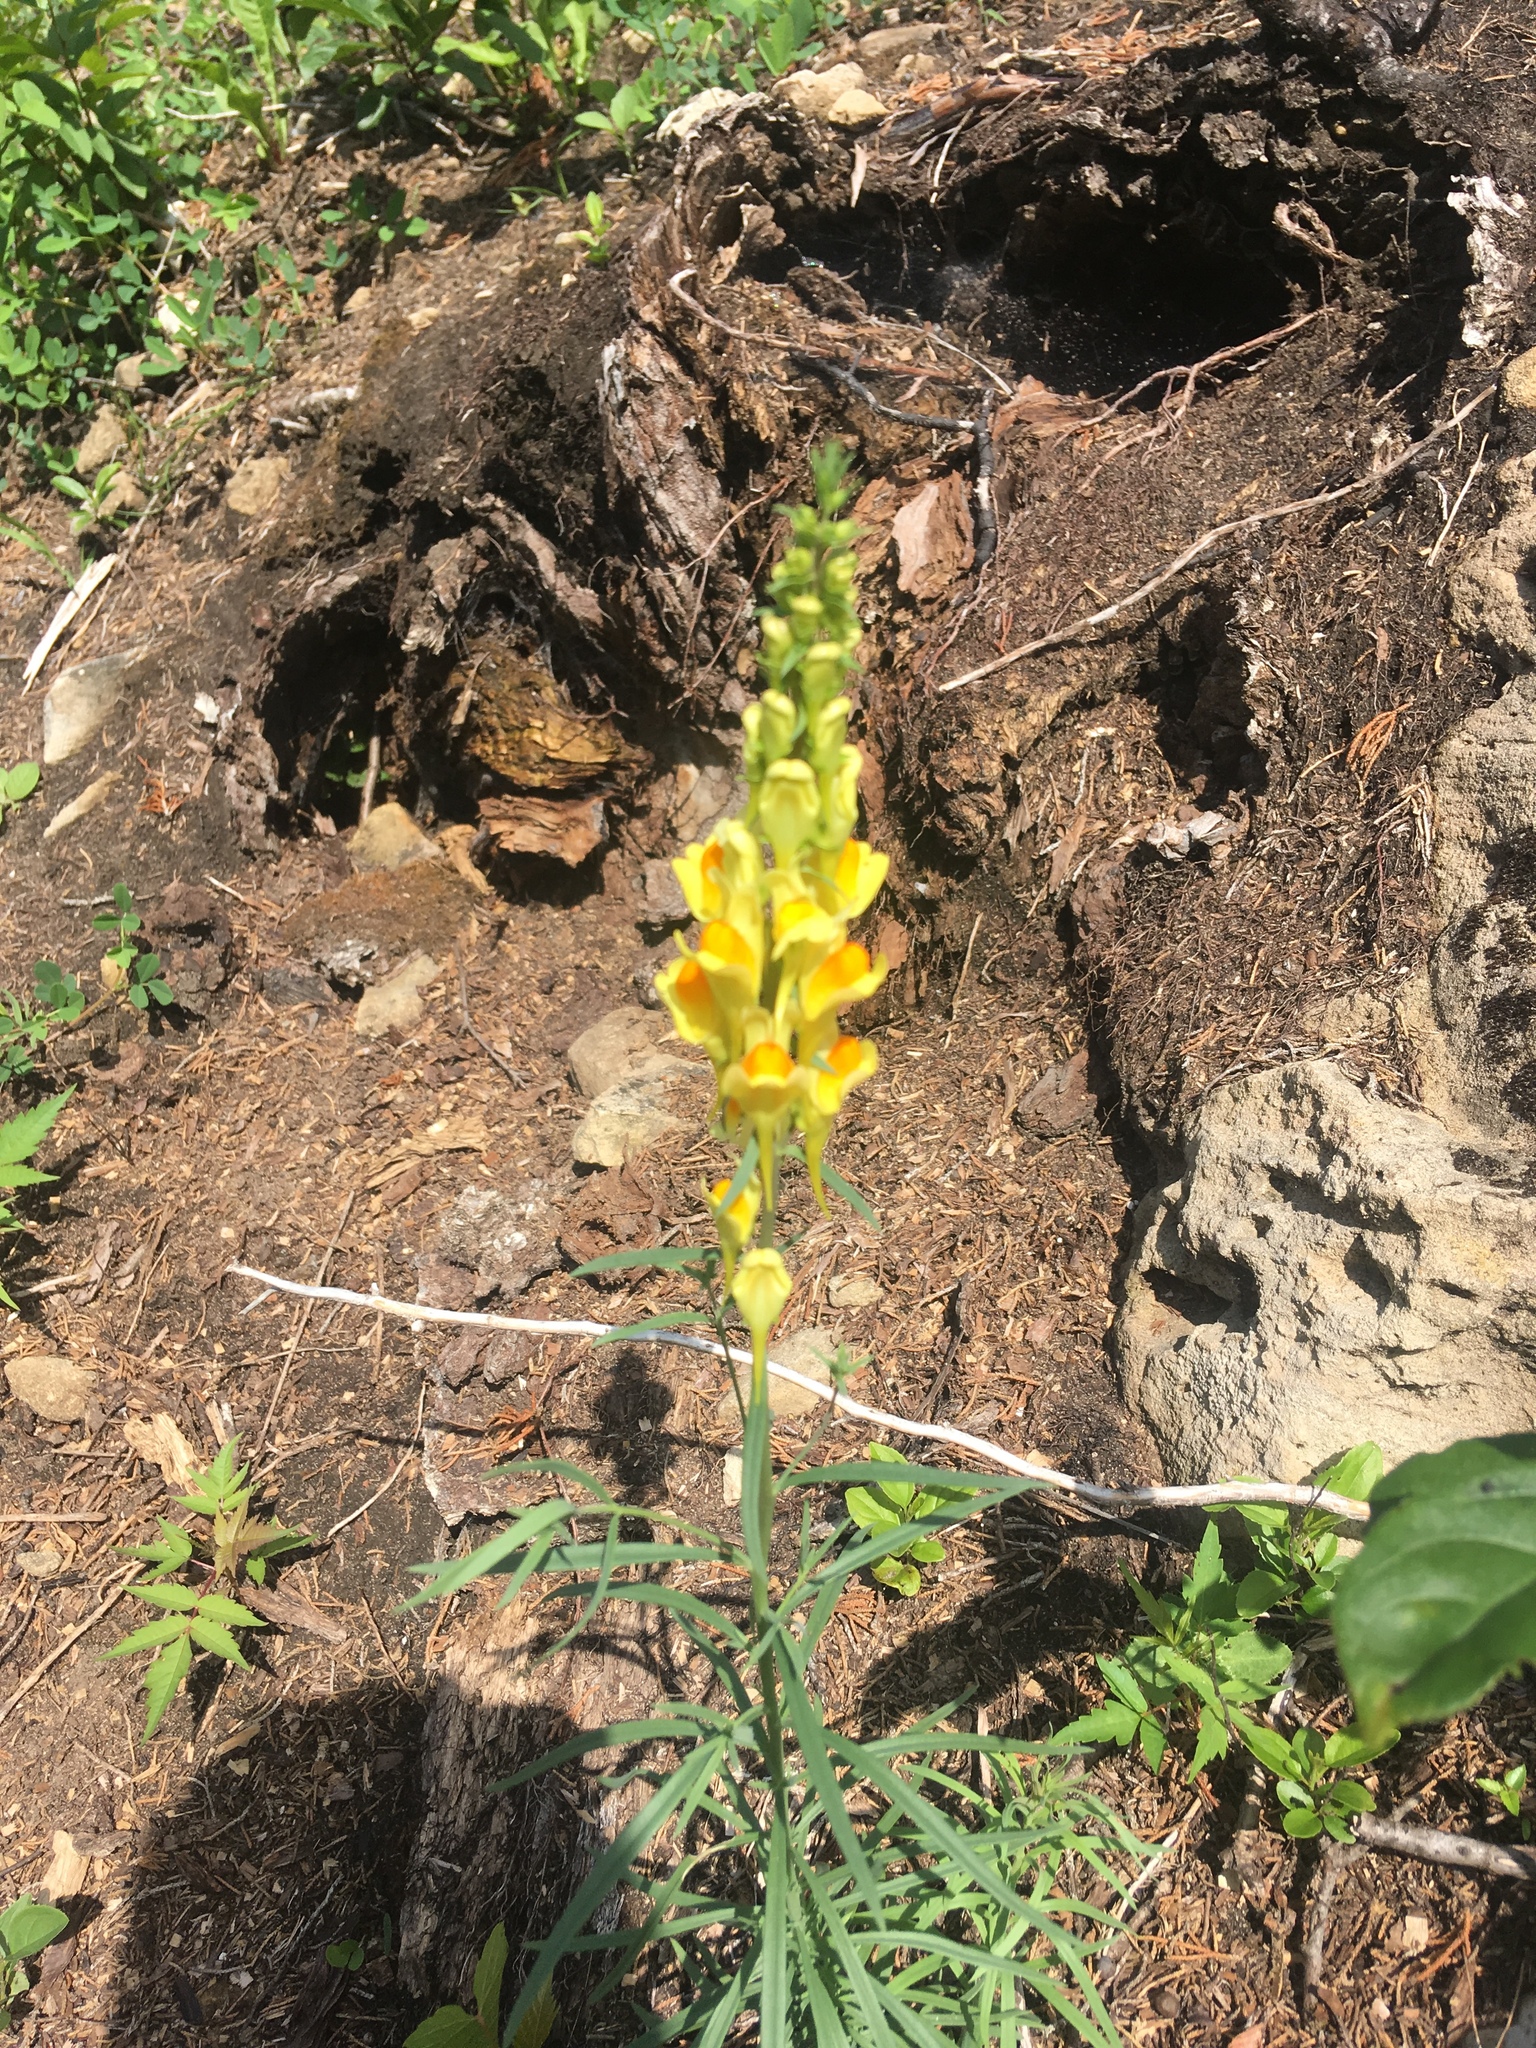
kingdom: Plantae
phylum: Tracheophyta
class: Magnoliopsida
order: Lamiales
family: Plantaginaceae
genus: Linaria
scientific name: Linaria vulgaris
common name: Butter and eggs
